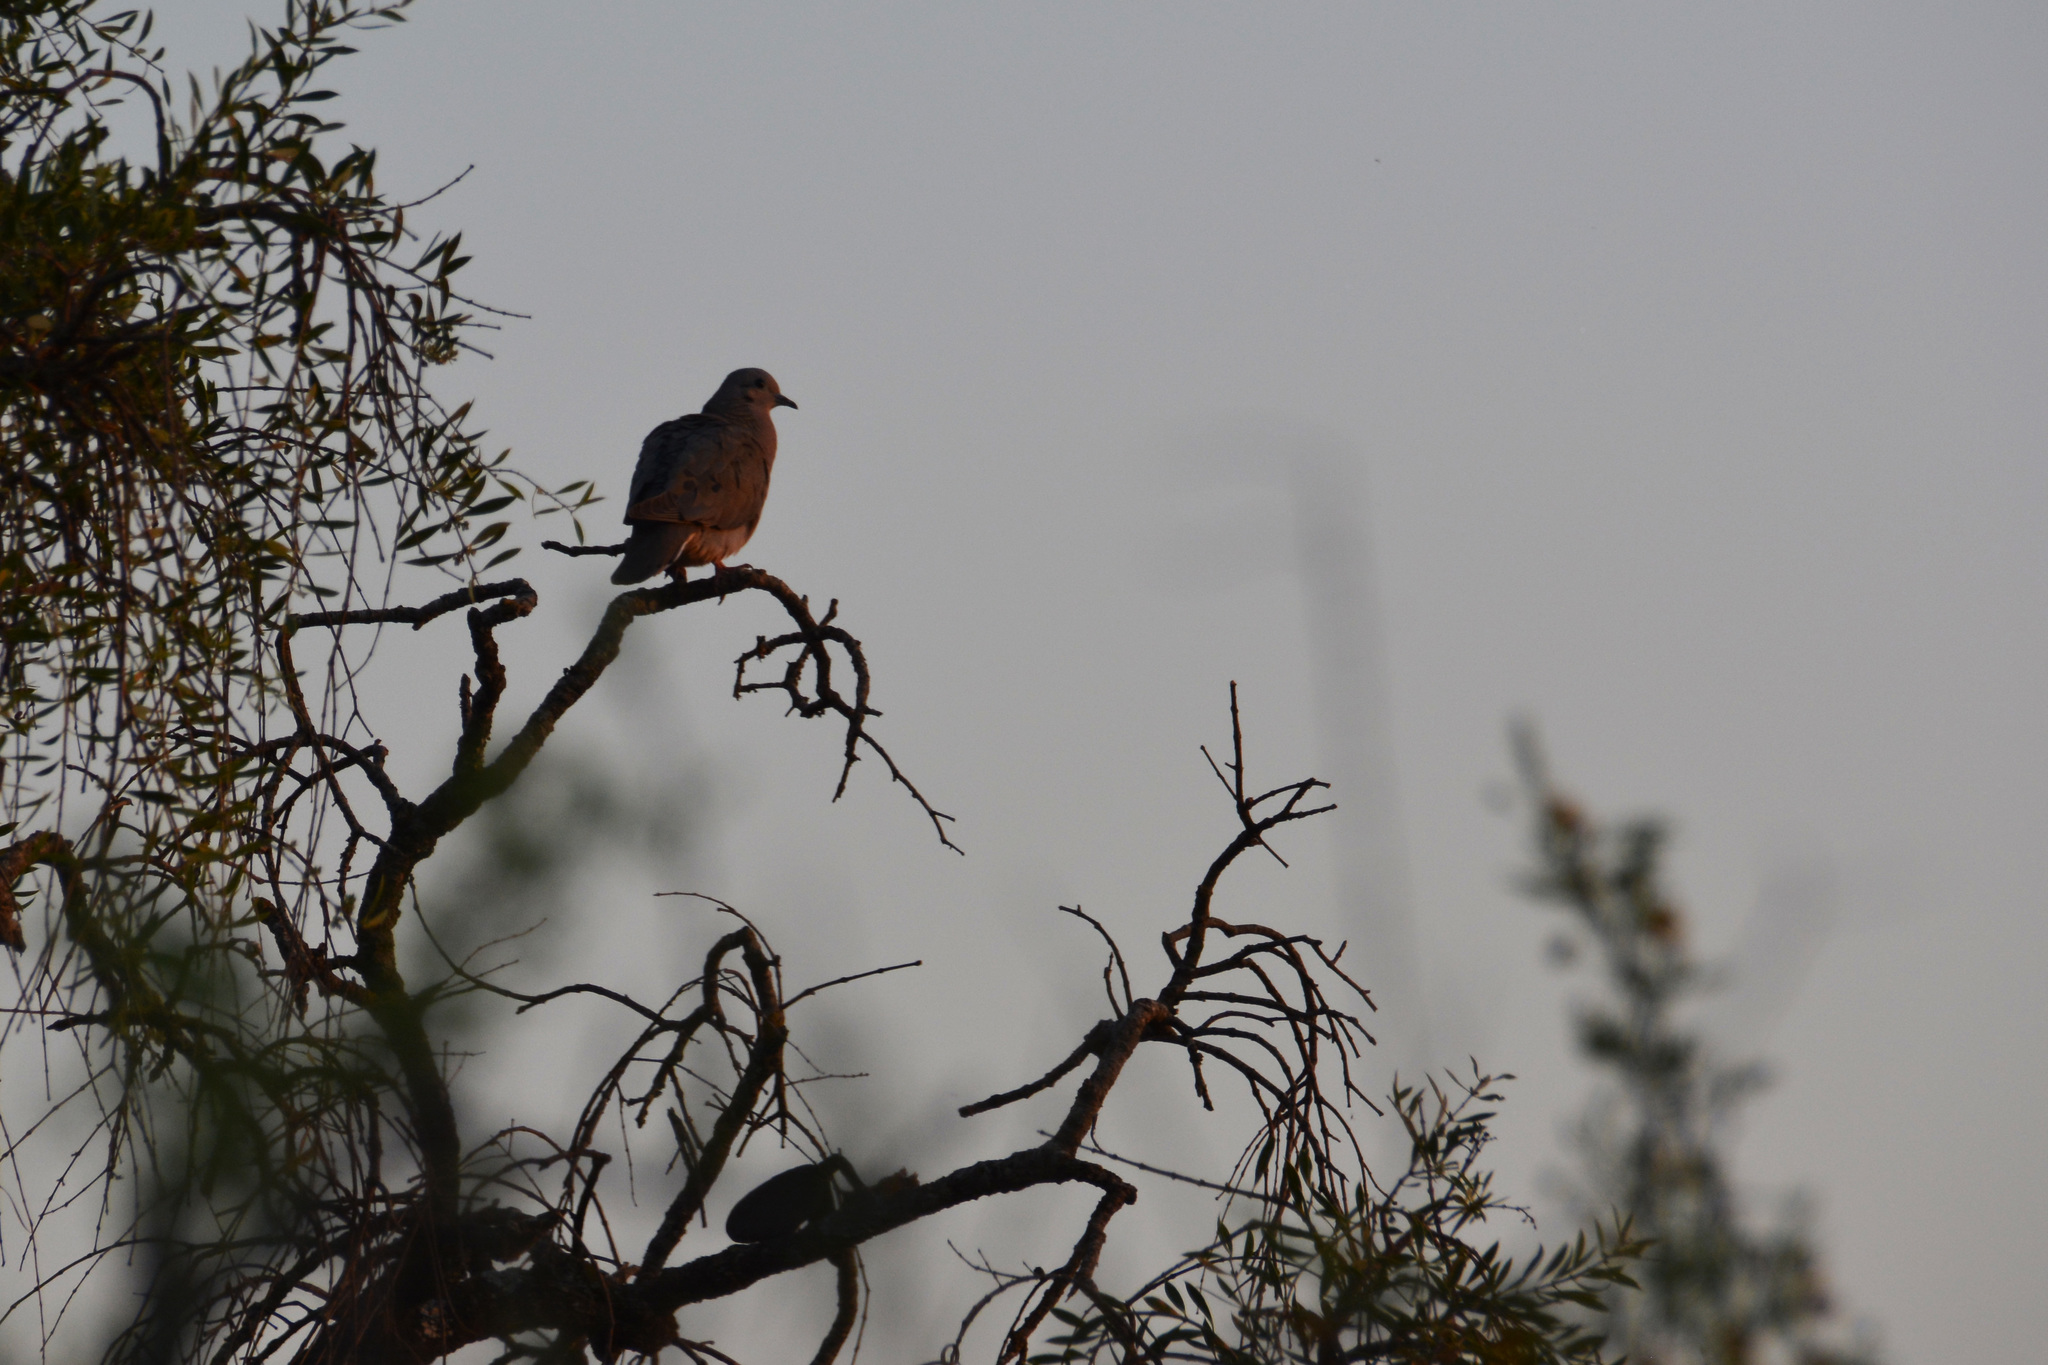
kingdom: Animalia
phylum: Chordata
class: Aves
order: Columbiformes
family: Columbidae
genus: Zenaida
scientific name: Zenaida auriculata
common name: Eared dove
